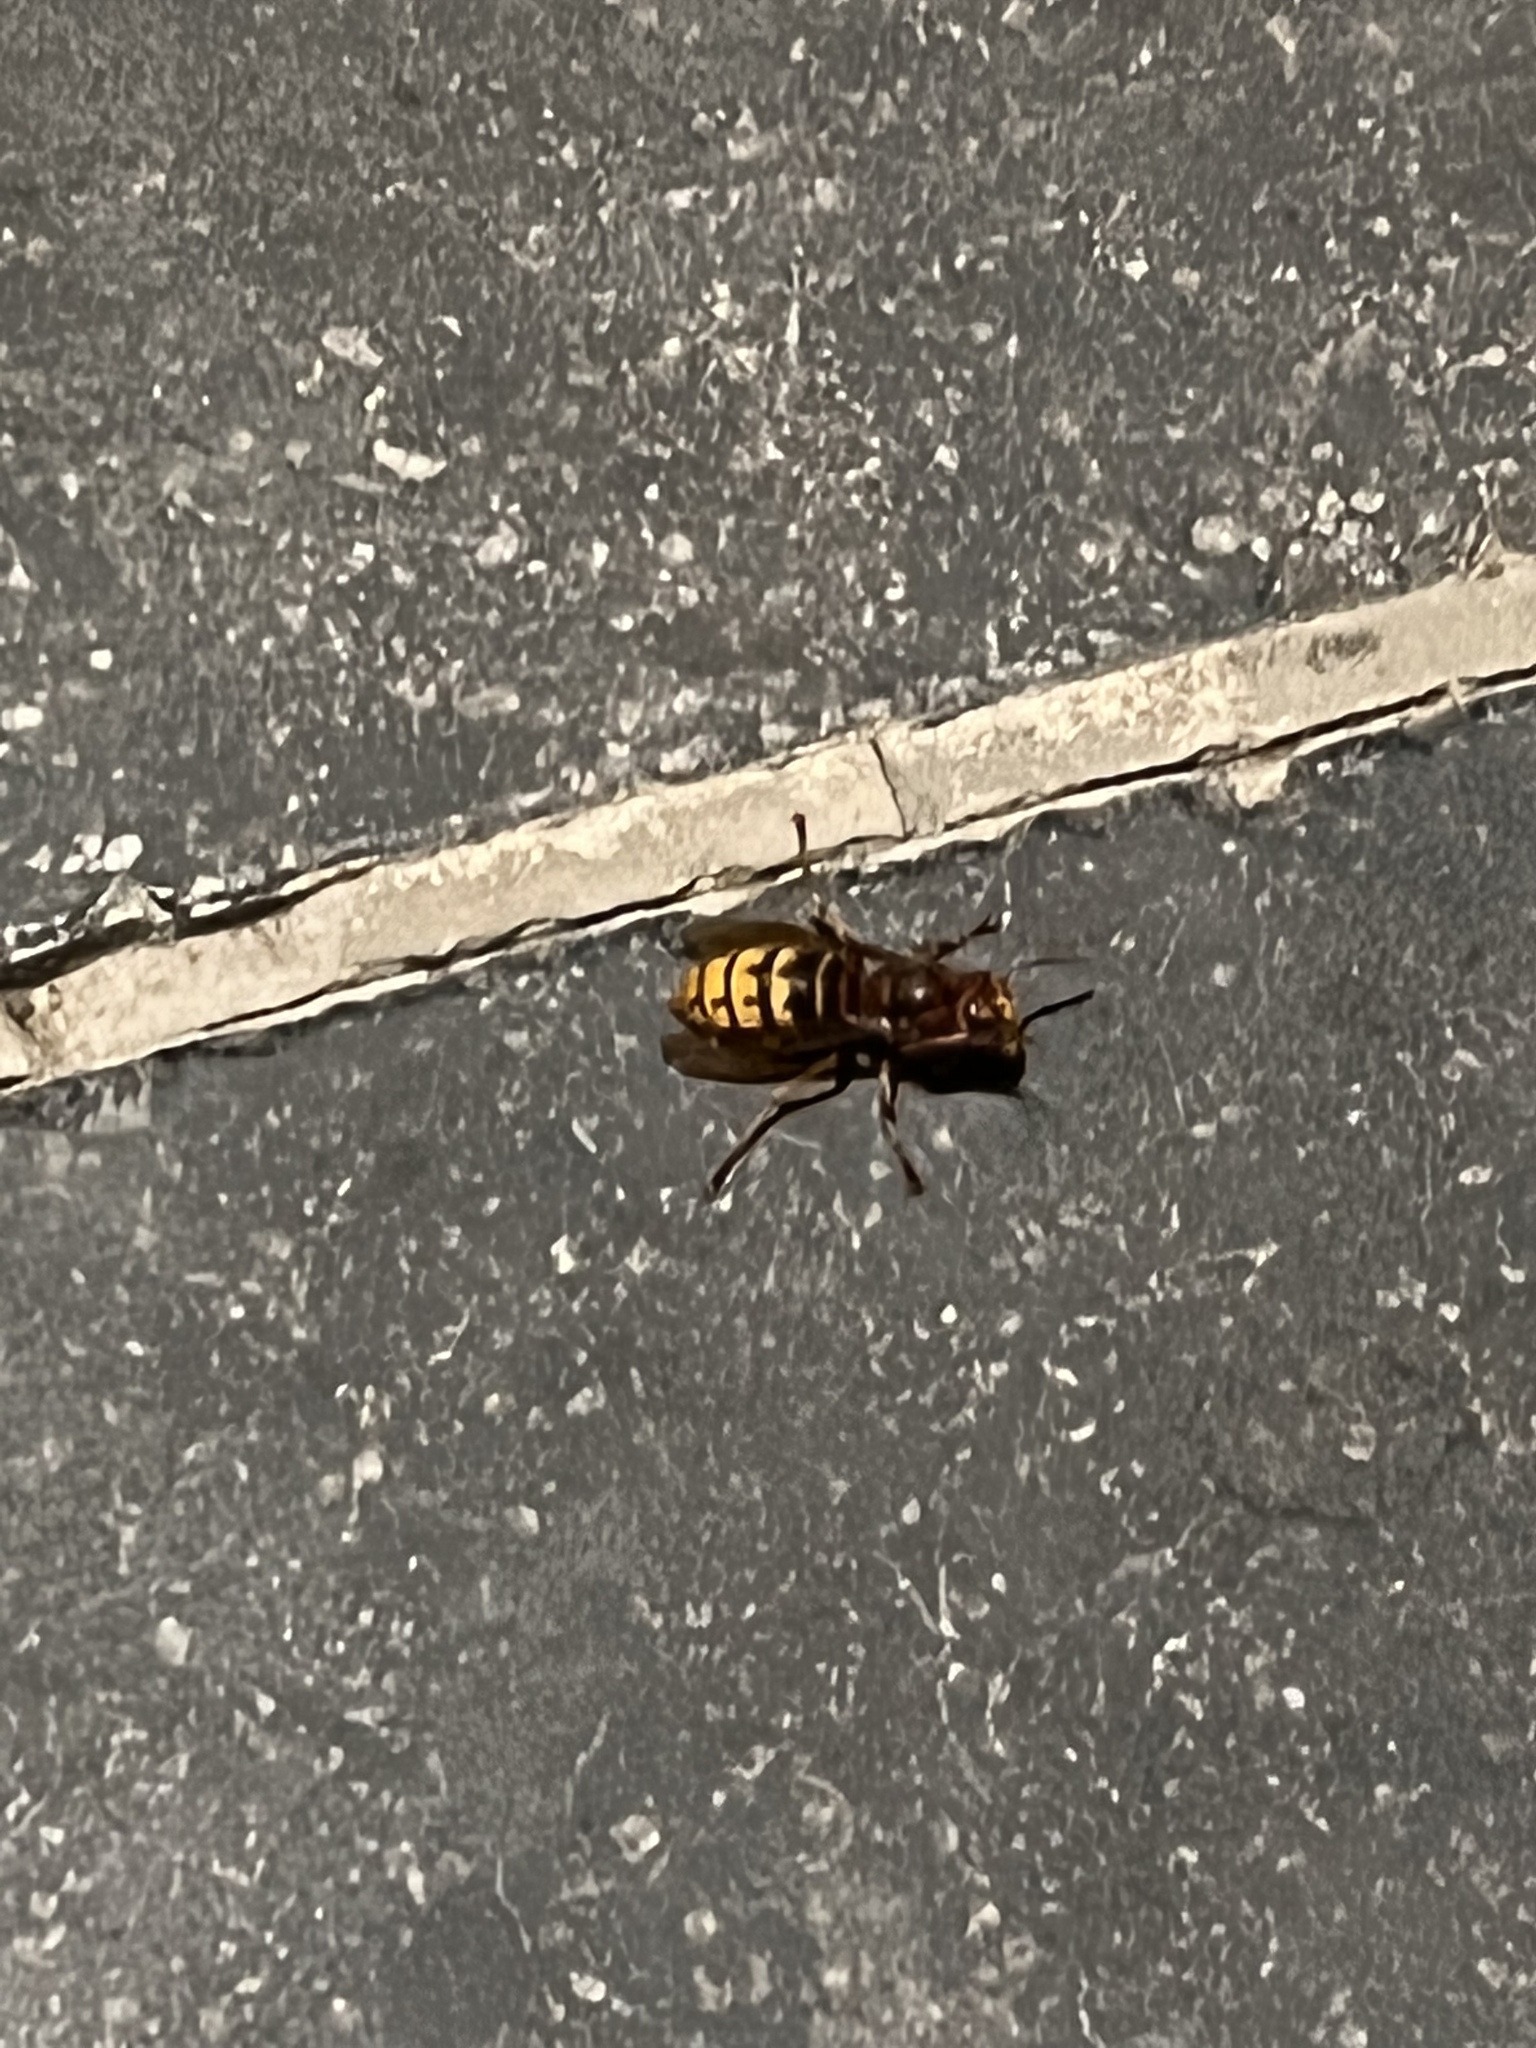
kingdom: Animalia
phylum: Arthropoda
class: Insecta
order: Hymenoptera
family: Vespidae
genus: Vespa
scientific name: Vespa crabro
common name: Hornet
